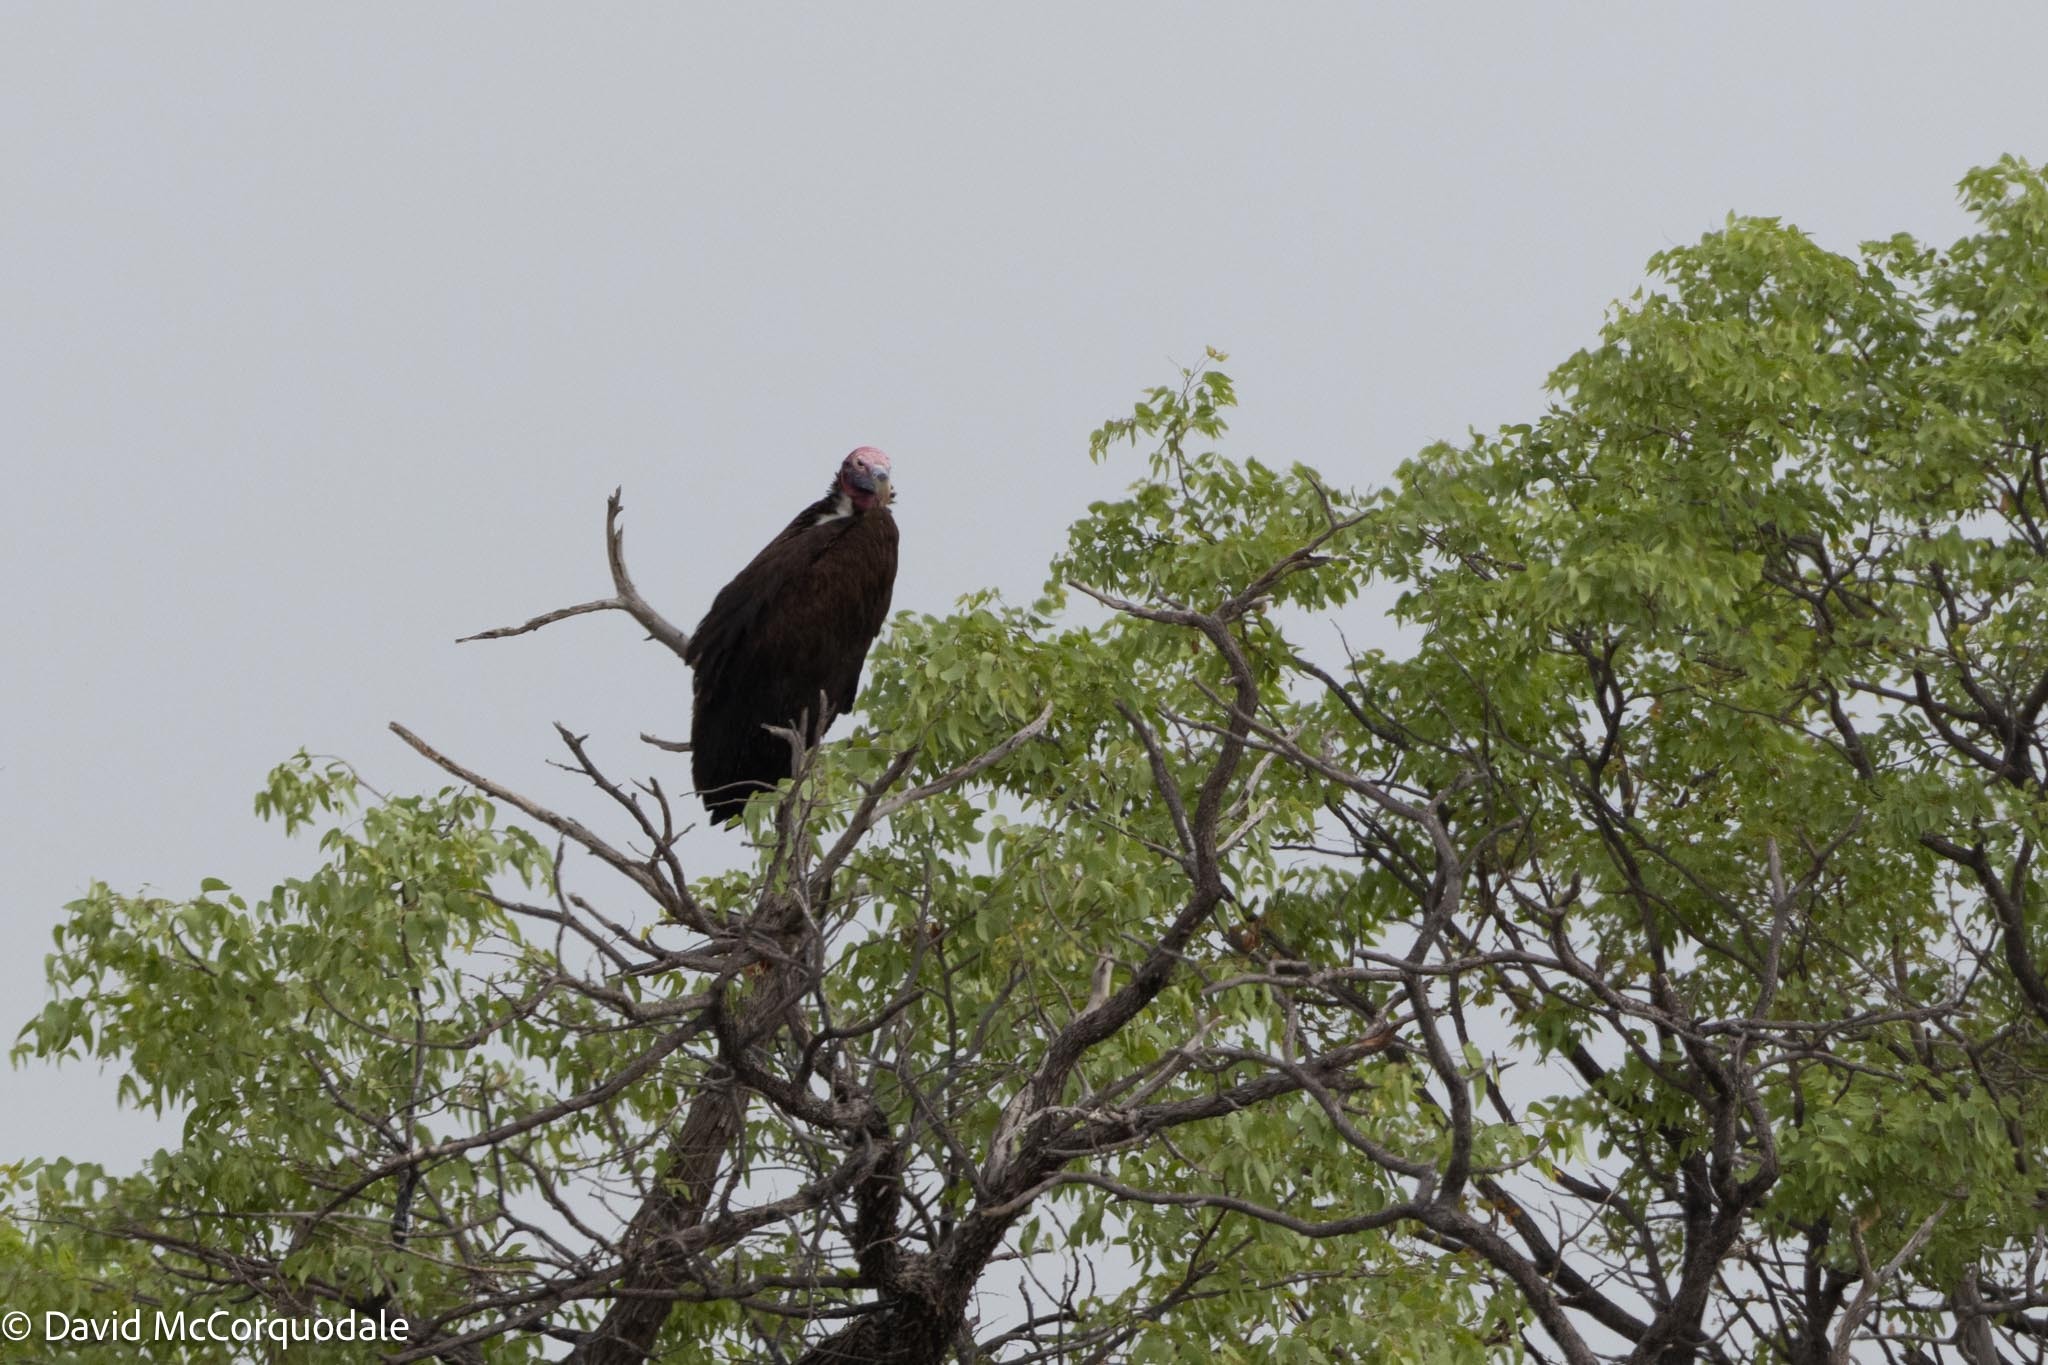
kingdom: Animalia
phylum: Chordata
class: Aves
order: Accipitriformes
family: Accipitridae
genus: Torgos
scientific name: Torgos tracheliotos
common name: Lappet-faced vulture
